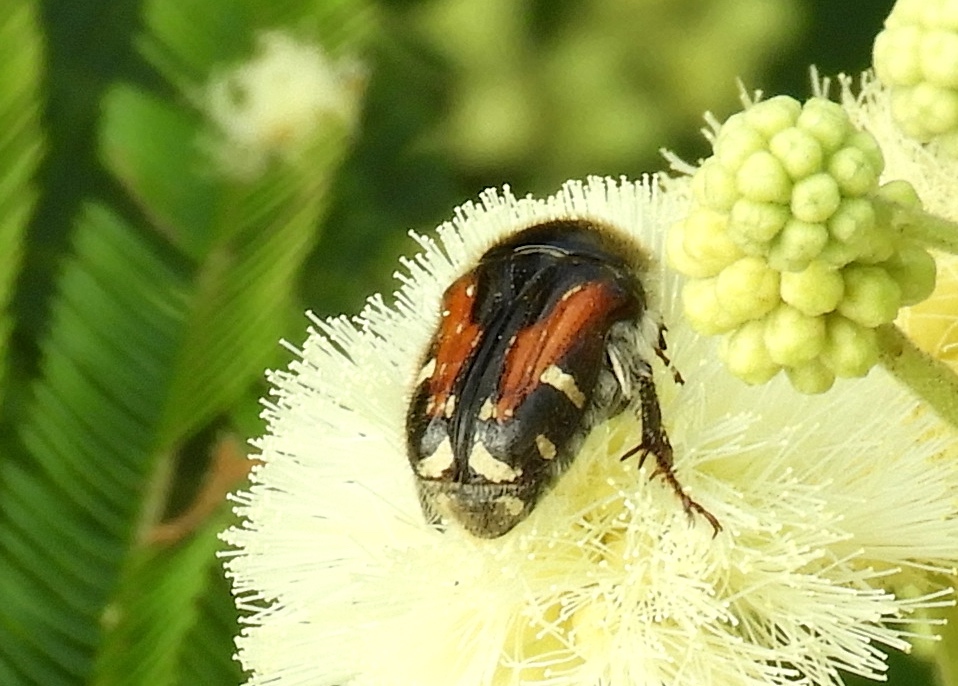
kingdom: Animalia
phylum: Arthropoda
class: Insecta
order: Coleoptera
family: Scarabaeidae
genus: Euphoria
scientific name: Euphoria pulchella
